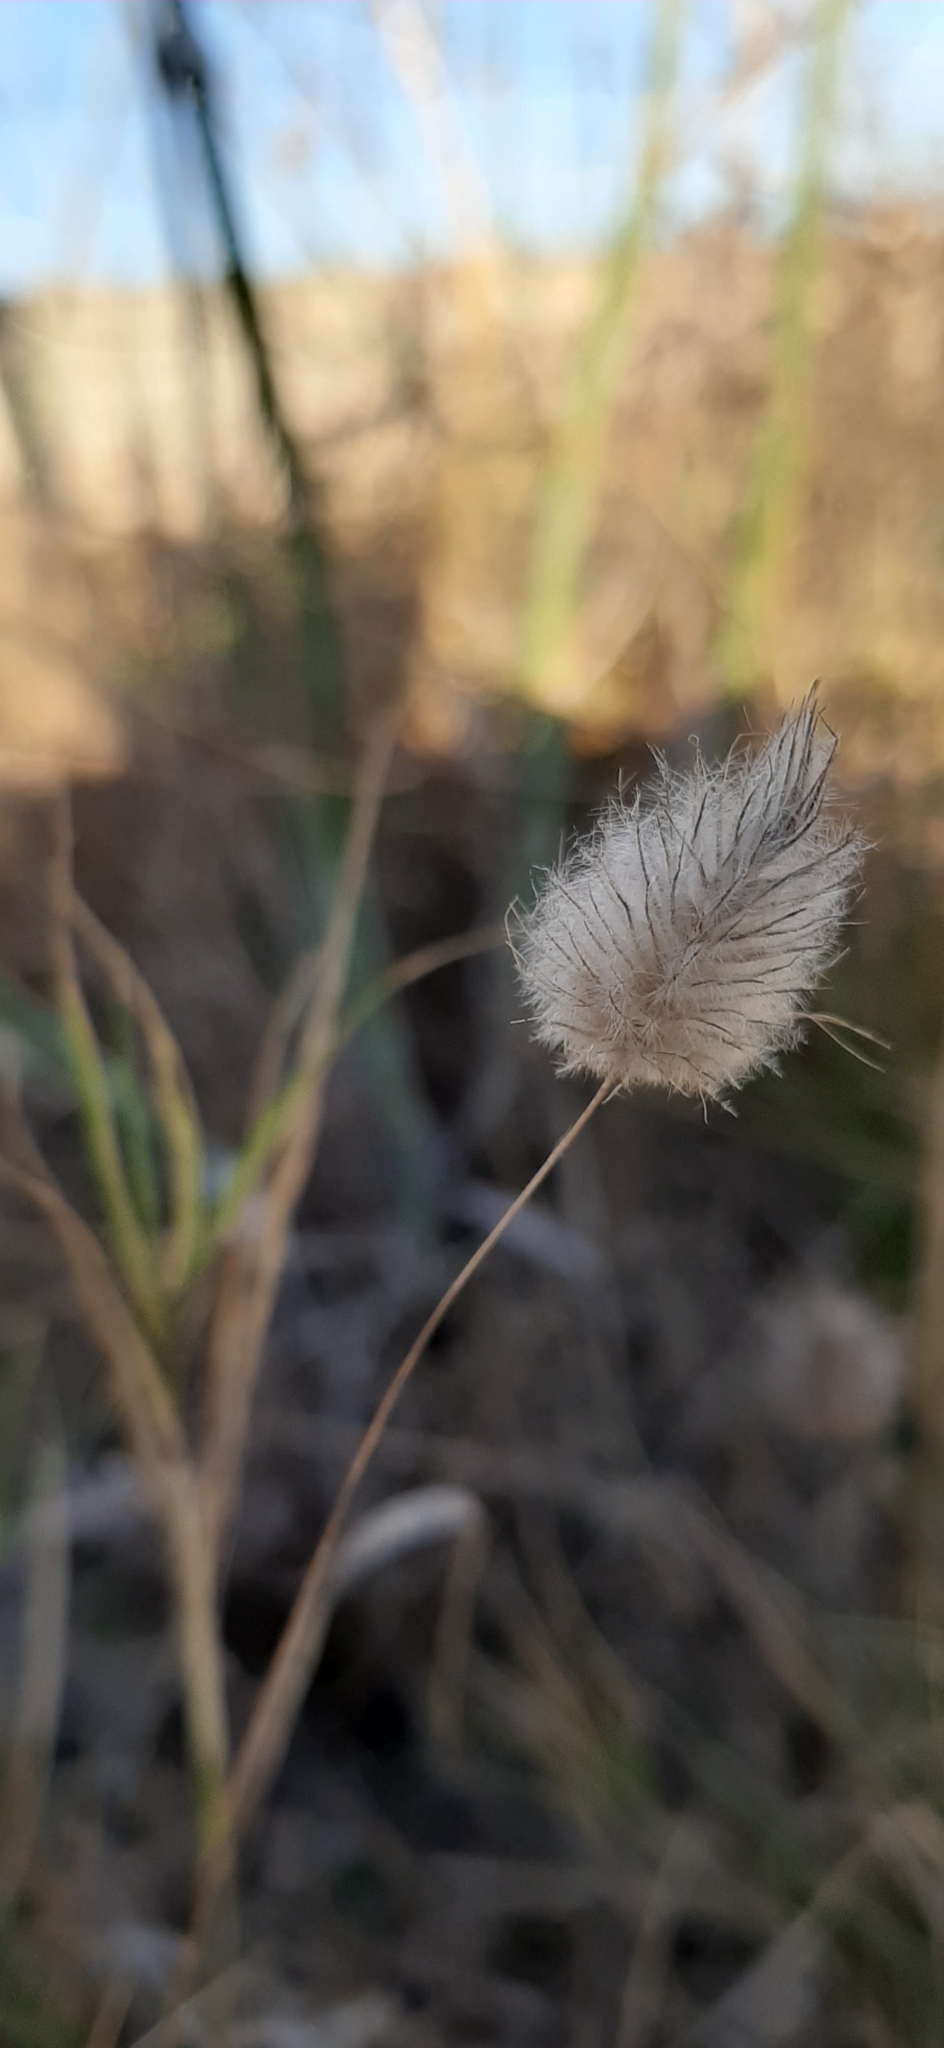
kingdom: Plantae
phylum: Tracheophyta
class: Liliopsida
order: Poales
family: Poaceae
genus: Lagurus
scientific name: Lagurus ovatus
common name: Hare's-tail
